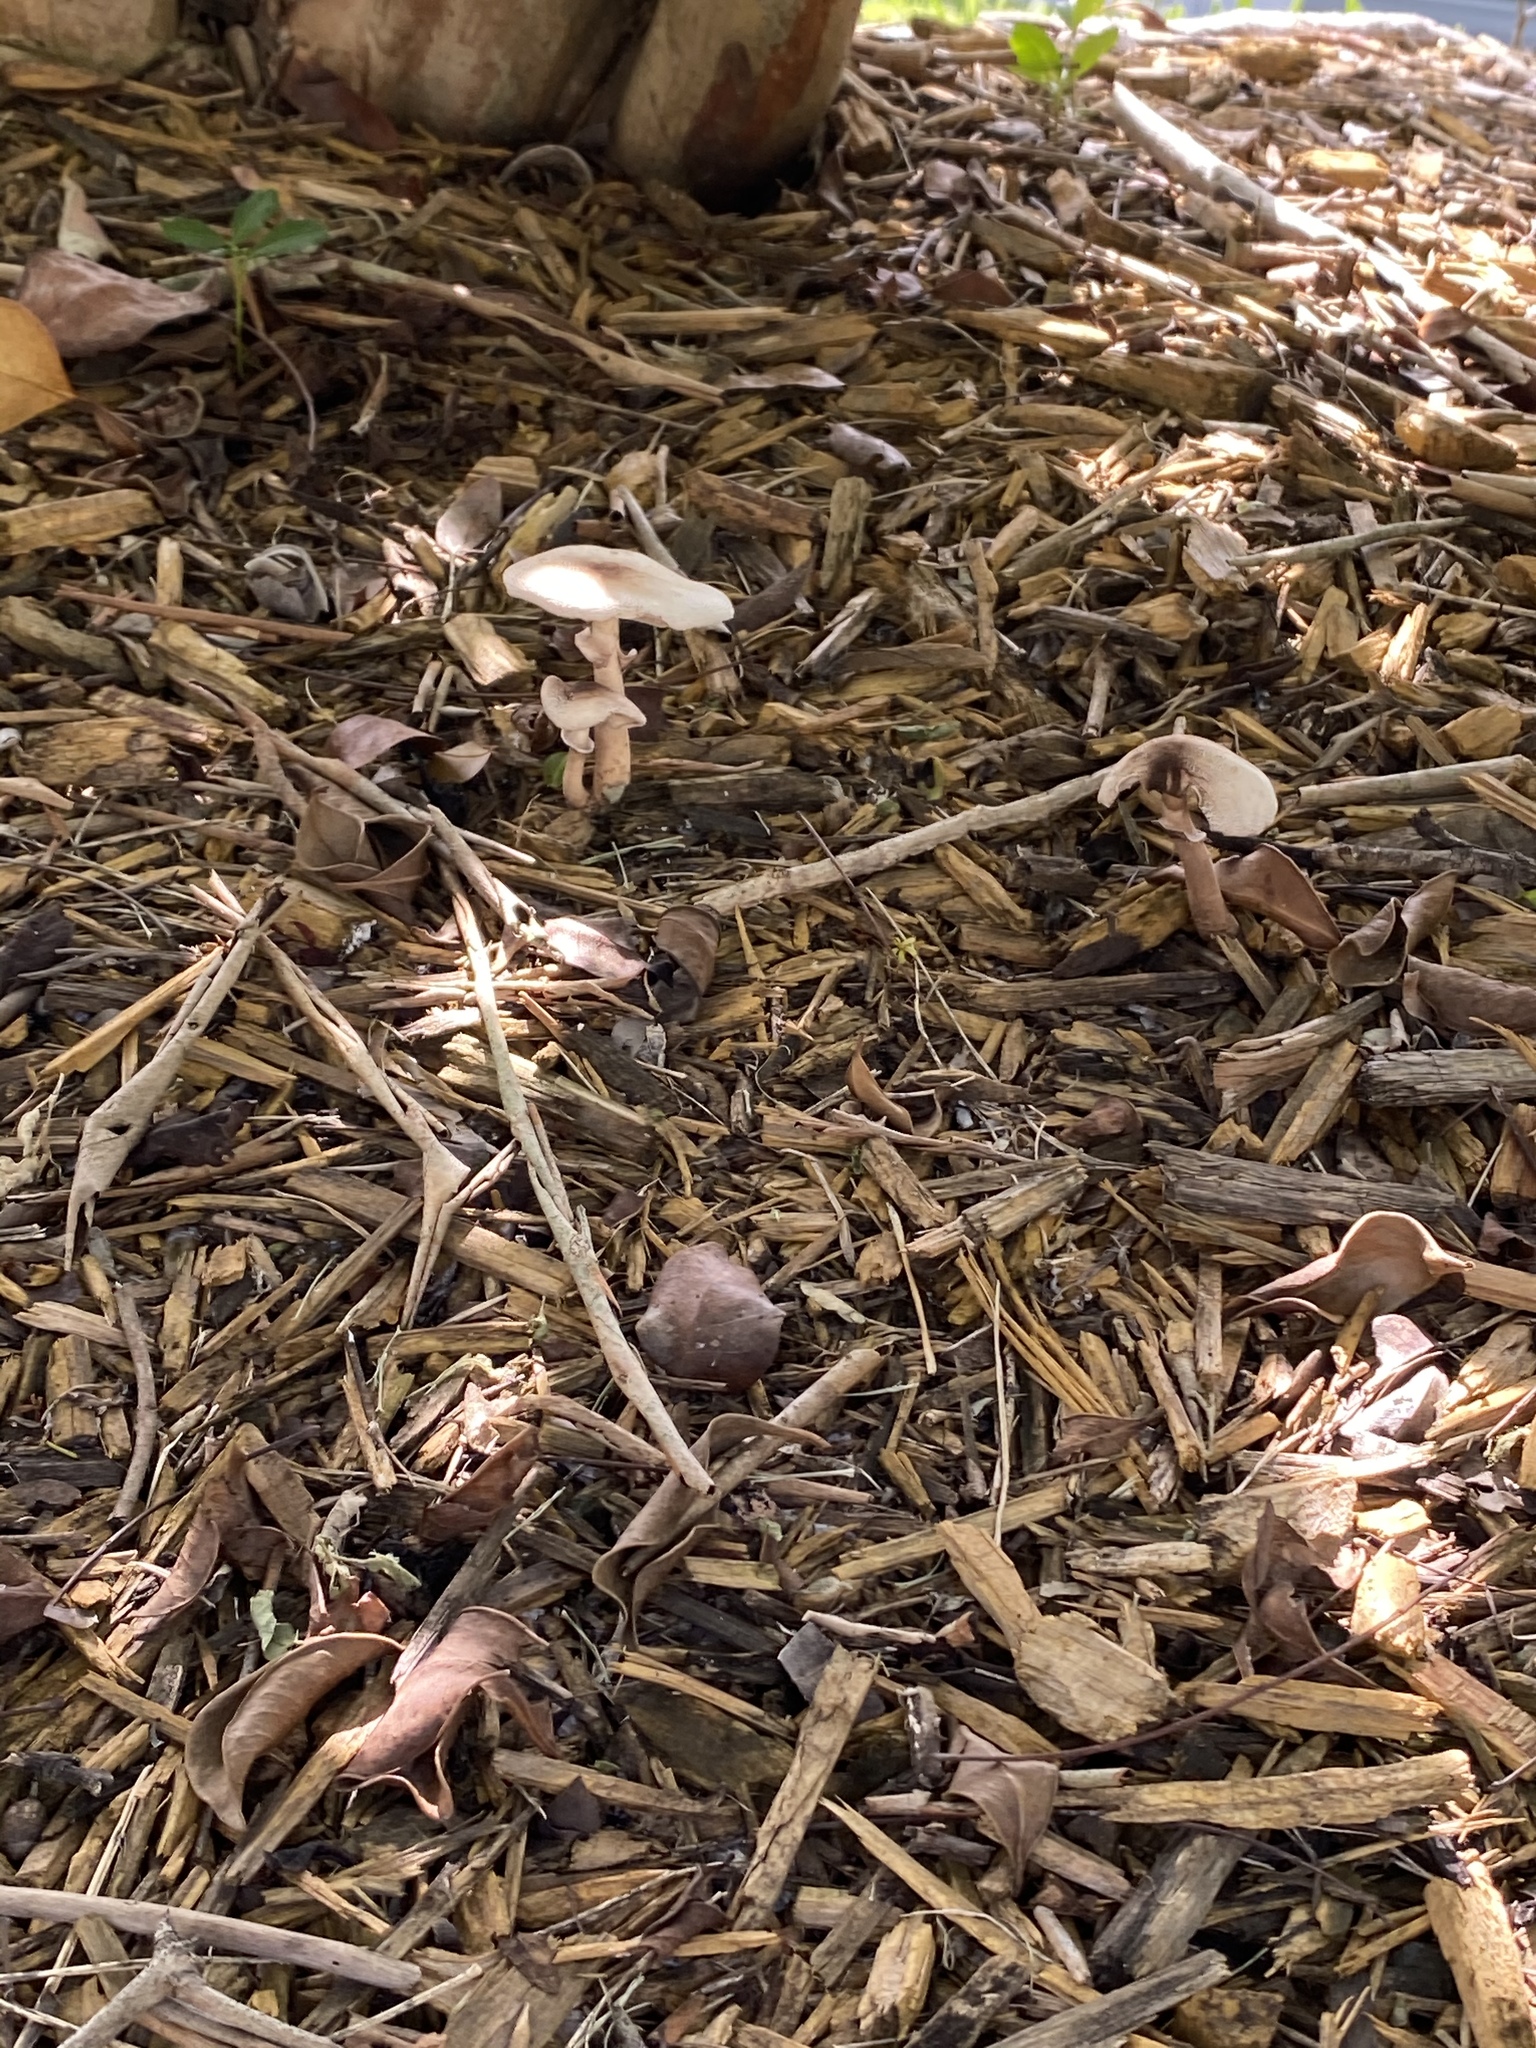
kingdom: Fungi
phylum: Basidiomycota
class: Agaricomycetes
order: Agaricales
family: Agaricaceae
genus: Leucoagaricus
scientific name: Leucoagaricus americanus
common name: Reddening lepiota
